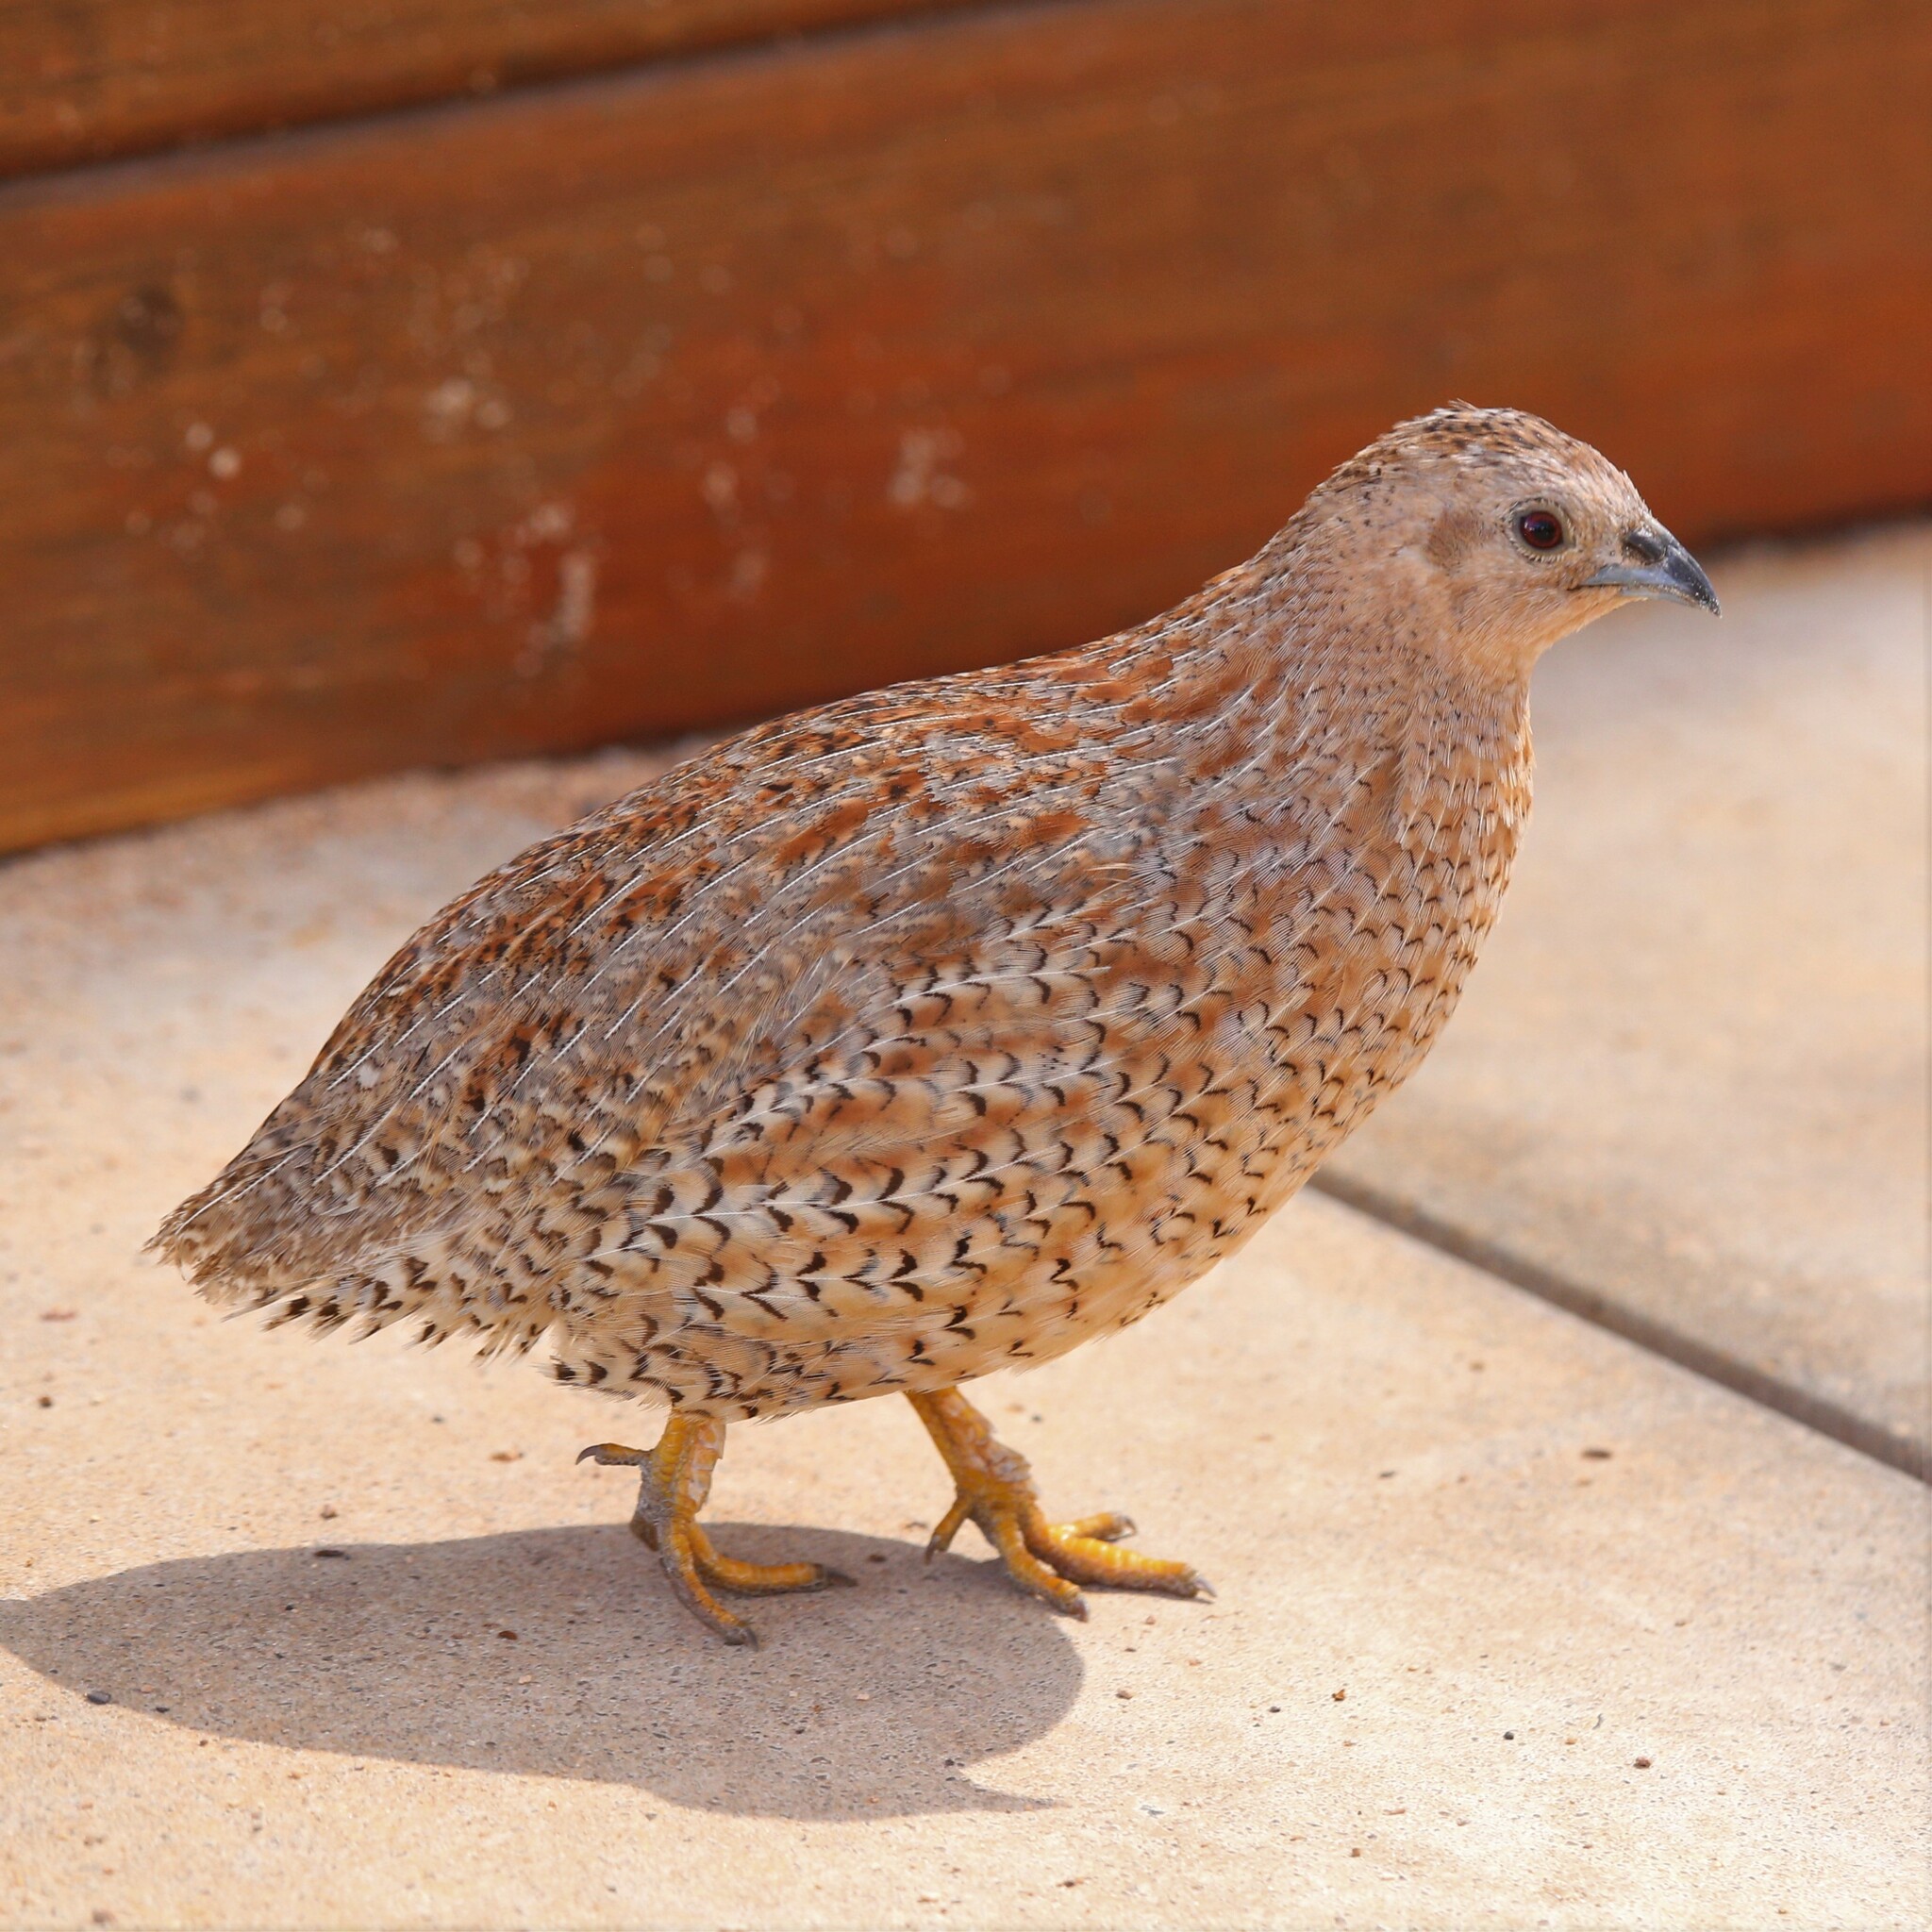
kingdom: Animalia
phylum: Chordata
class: Aves
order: Galliformes
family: Phasianidae
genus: Synoicus
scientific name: Synoicus ypsilophorus
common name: Brown quail
